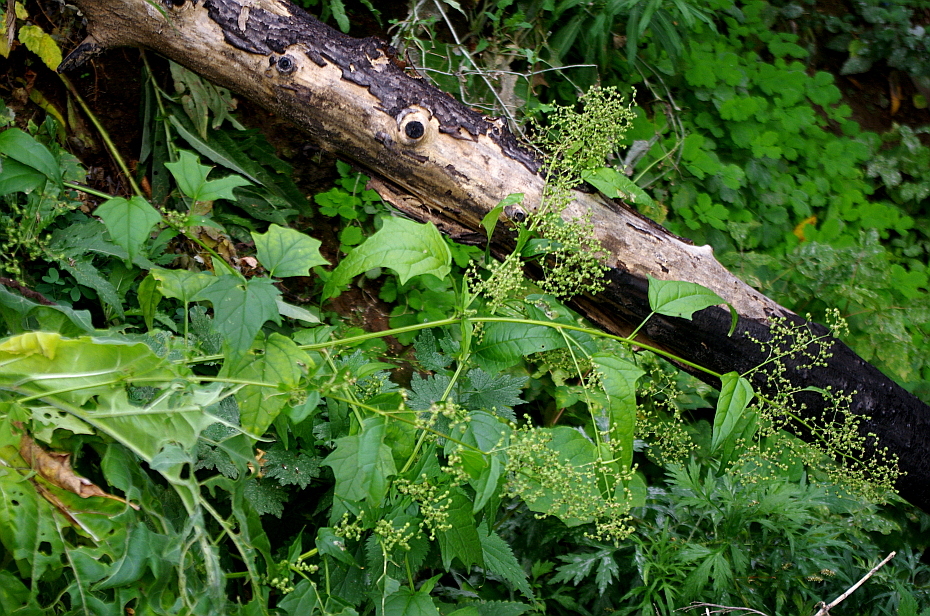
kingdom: Plantae
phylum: Tracheophyta
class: Magnoliopsida
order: Caryophyllales
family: Amaranthaceae
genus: Chenopodiastrum
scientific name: Chenopodiastrum hybridum
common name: Mapleleaf goosefoot
